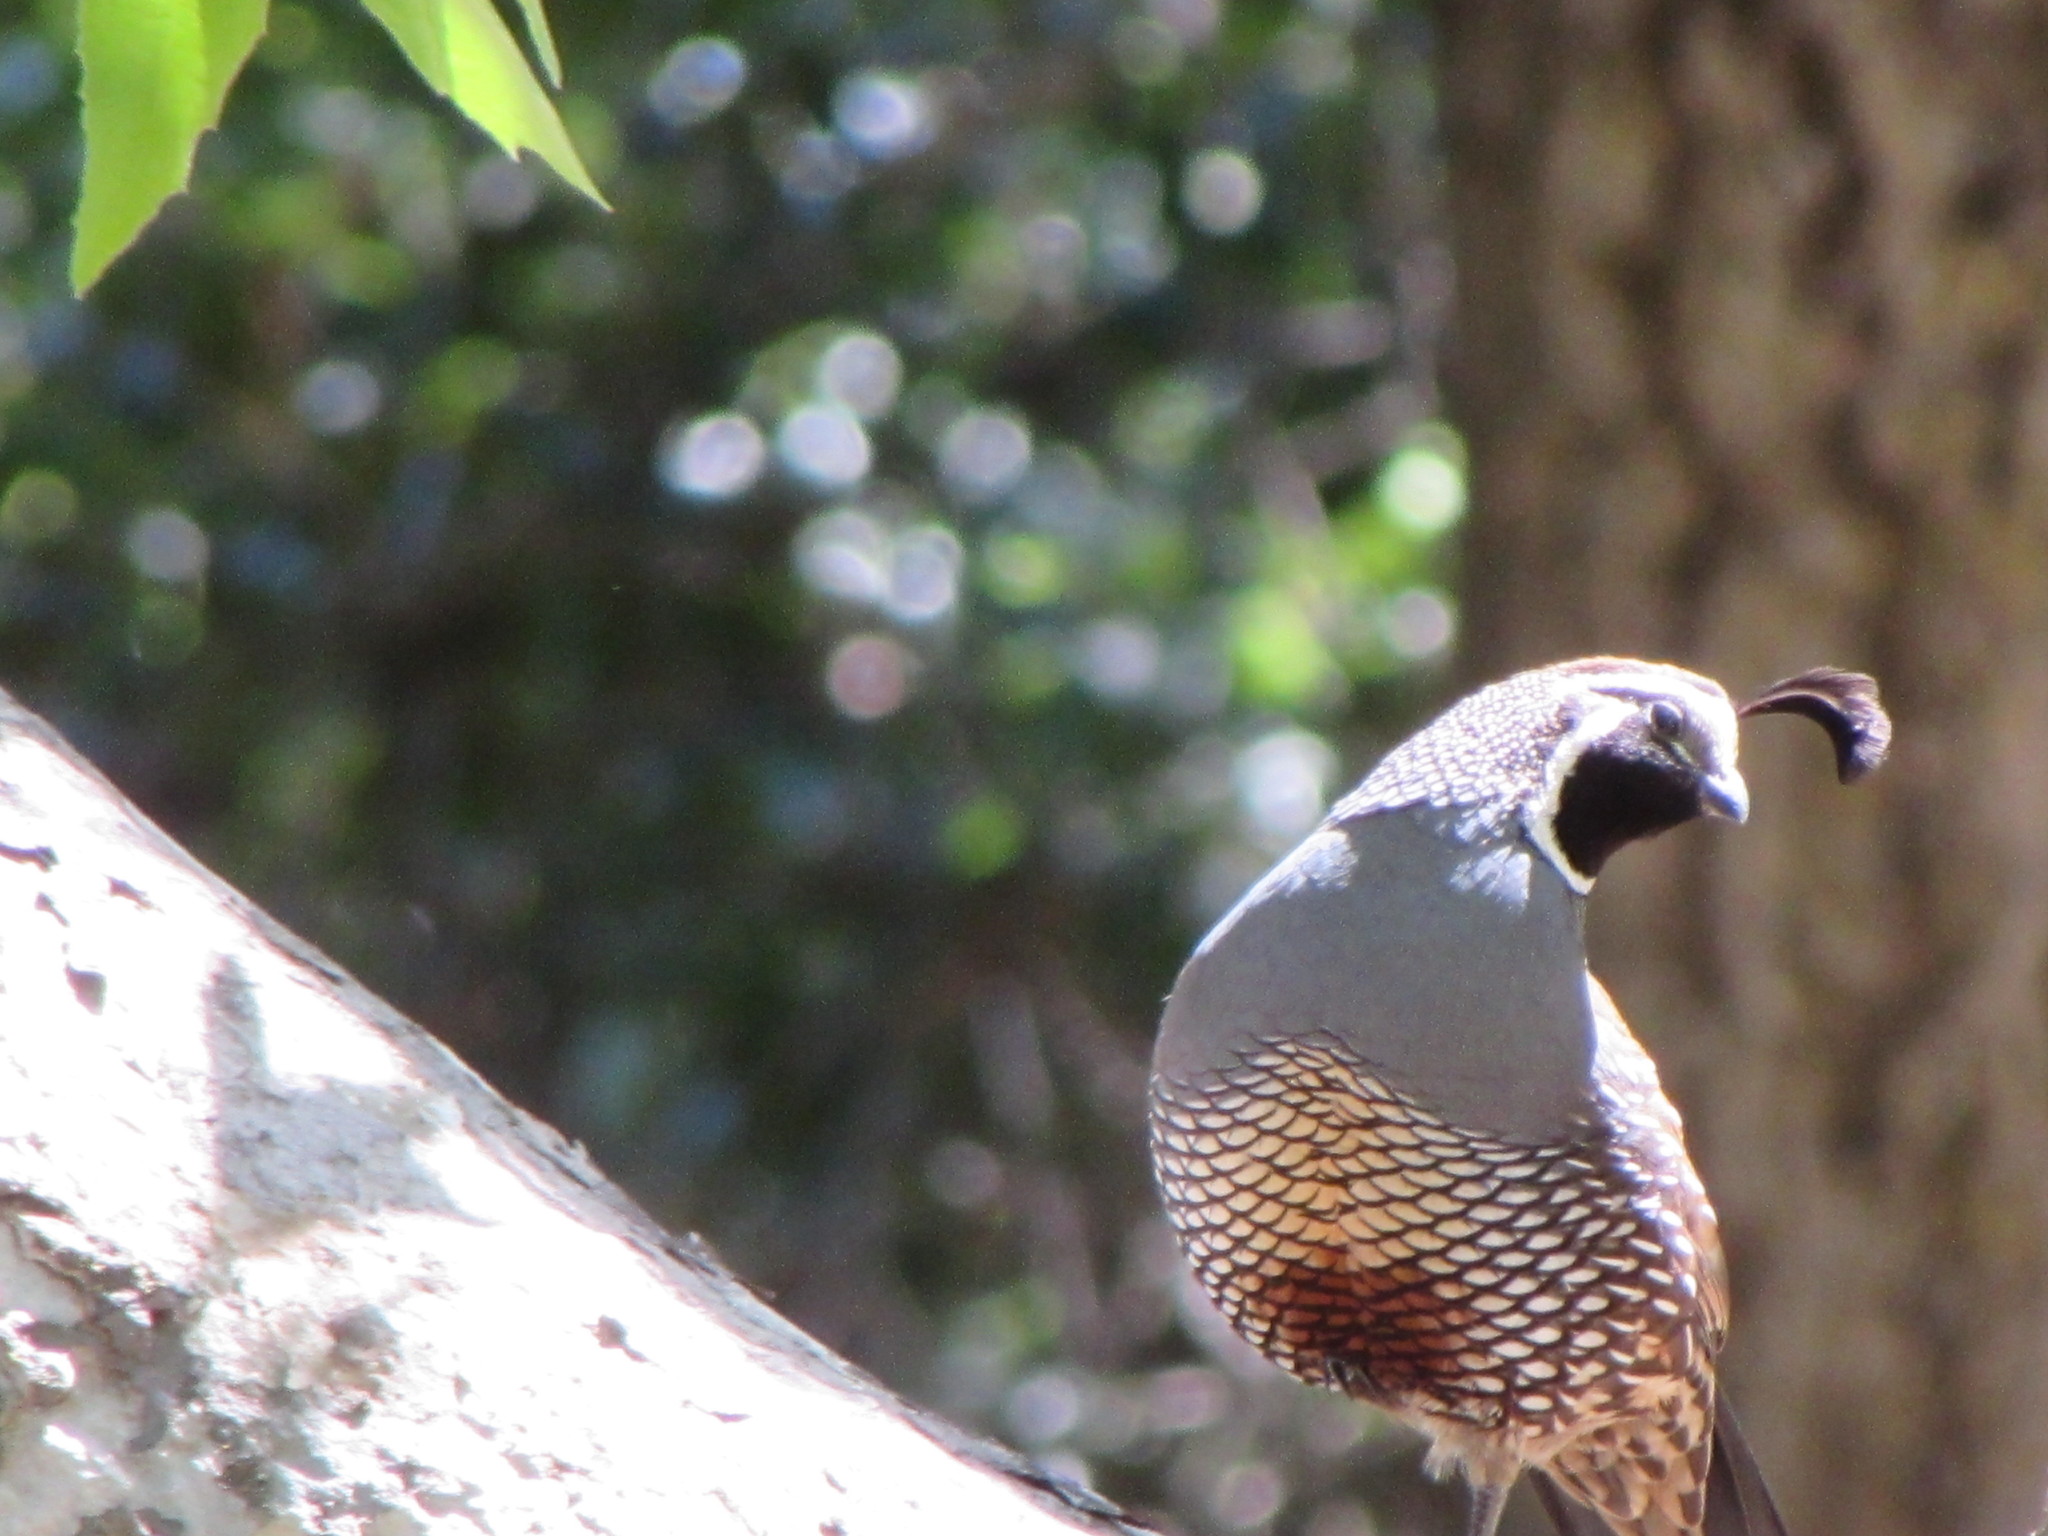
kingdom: Animalia
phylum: Chordata
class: Aves
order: Galliformes
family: Odontophoridae
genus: Callipepla
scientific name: Callipepla californica
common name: California quail
